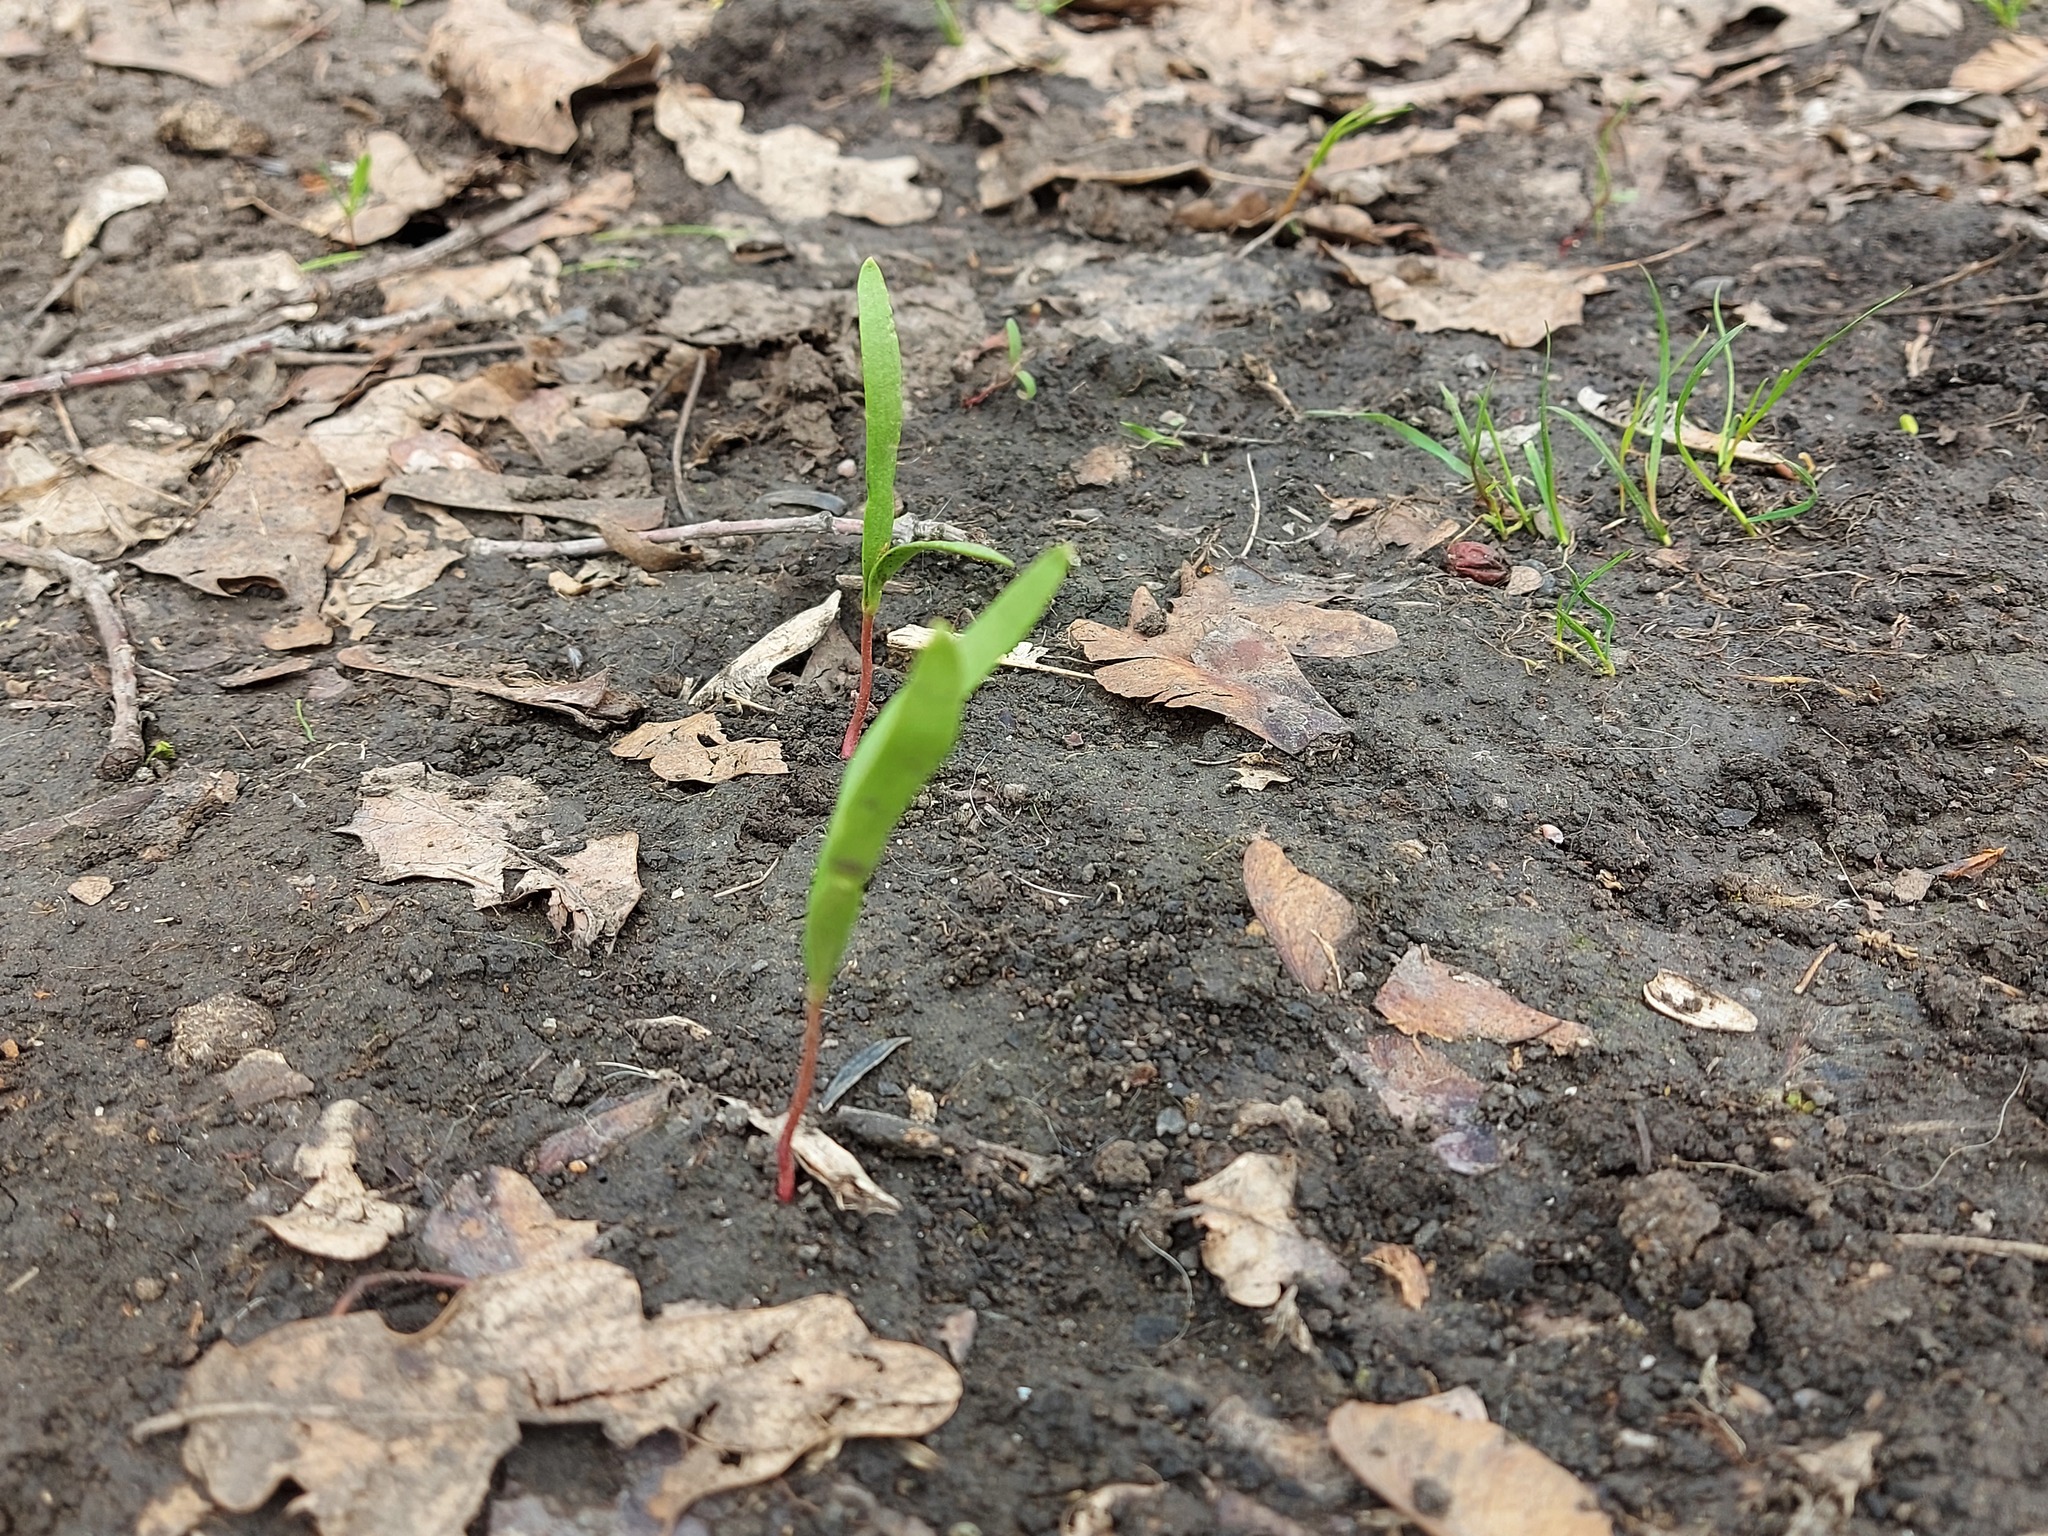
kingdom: Plantae
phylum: Tracheophyta
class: Magnoliopsida
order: Sapindales
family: Sapindaceae
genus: Acer
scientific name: Acer negundo
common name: Ashleaf maple
